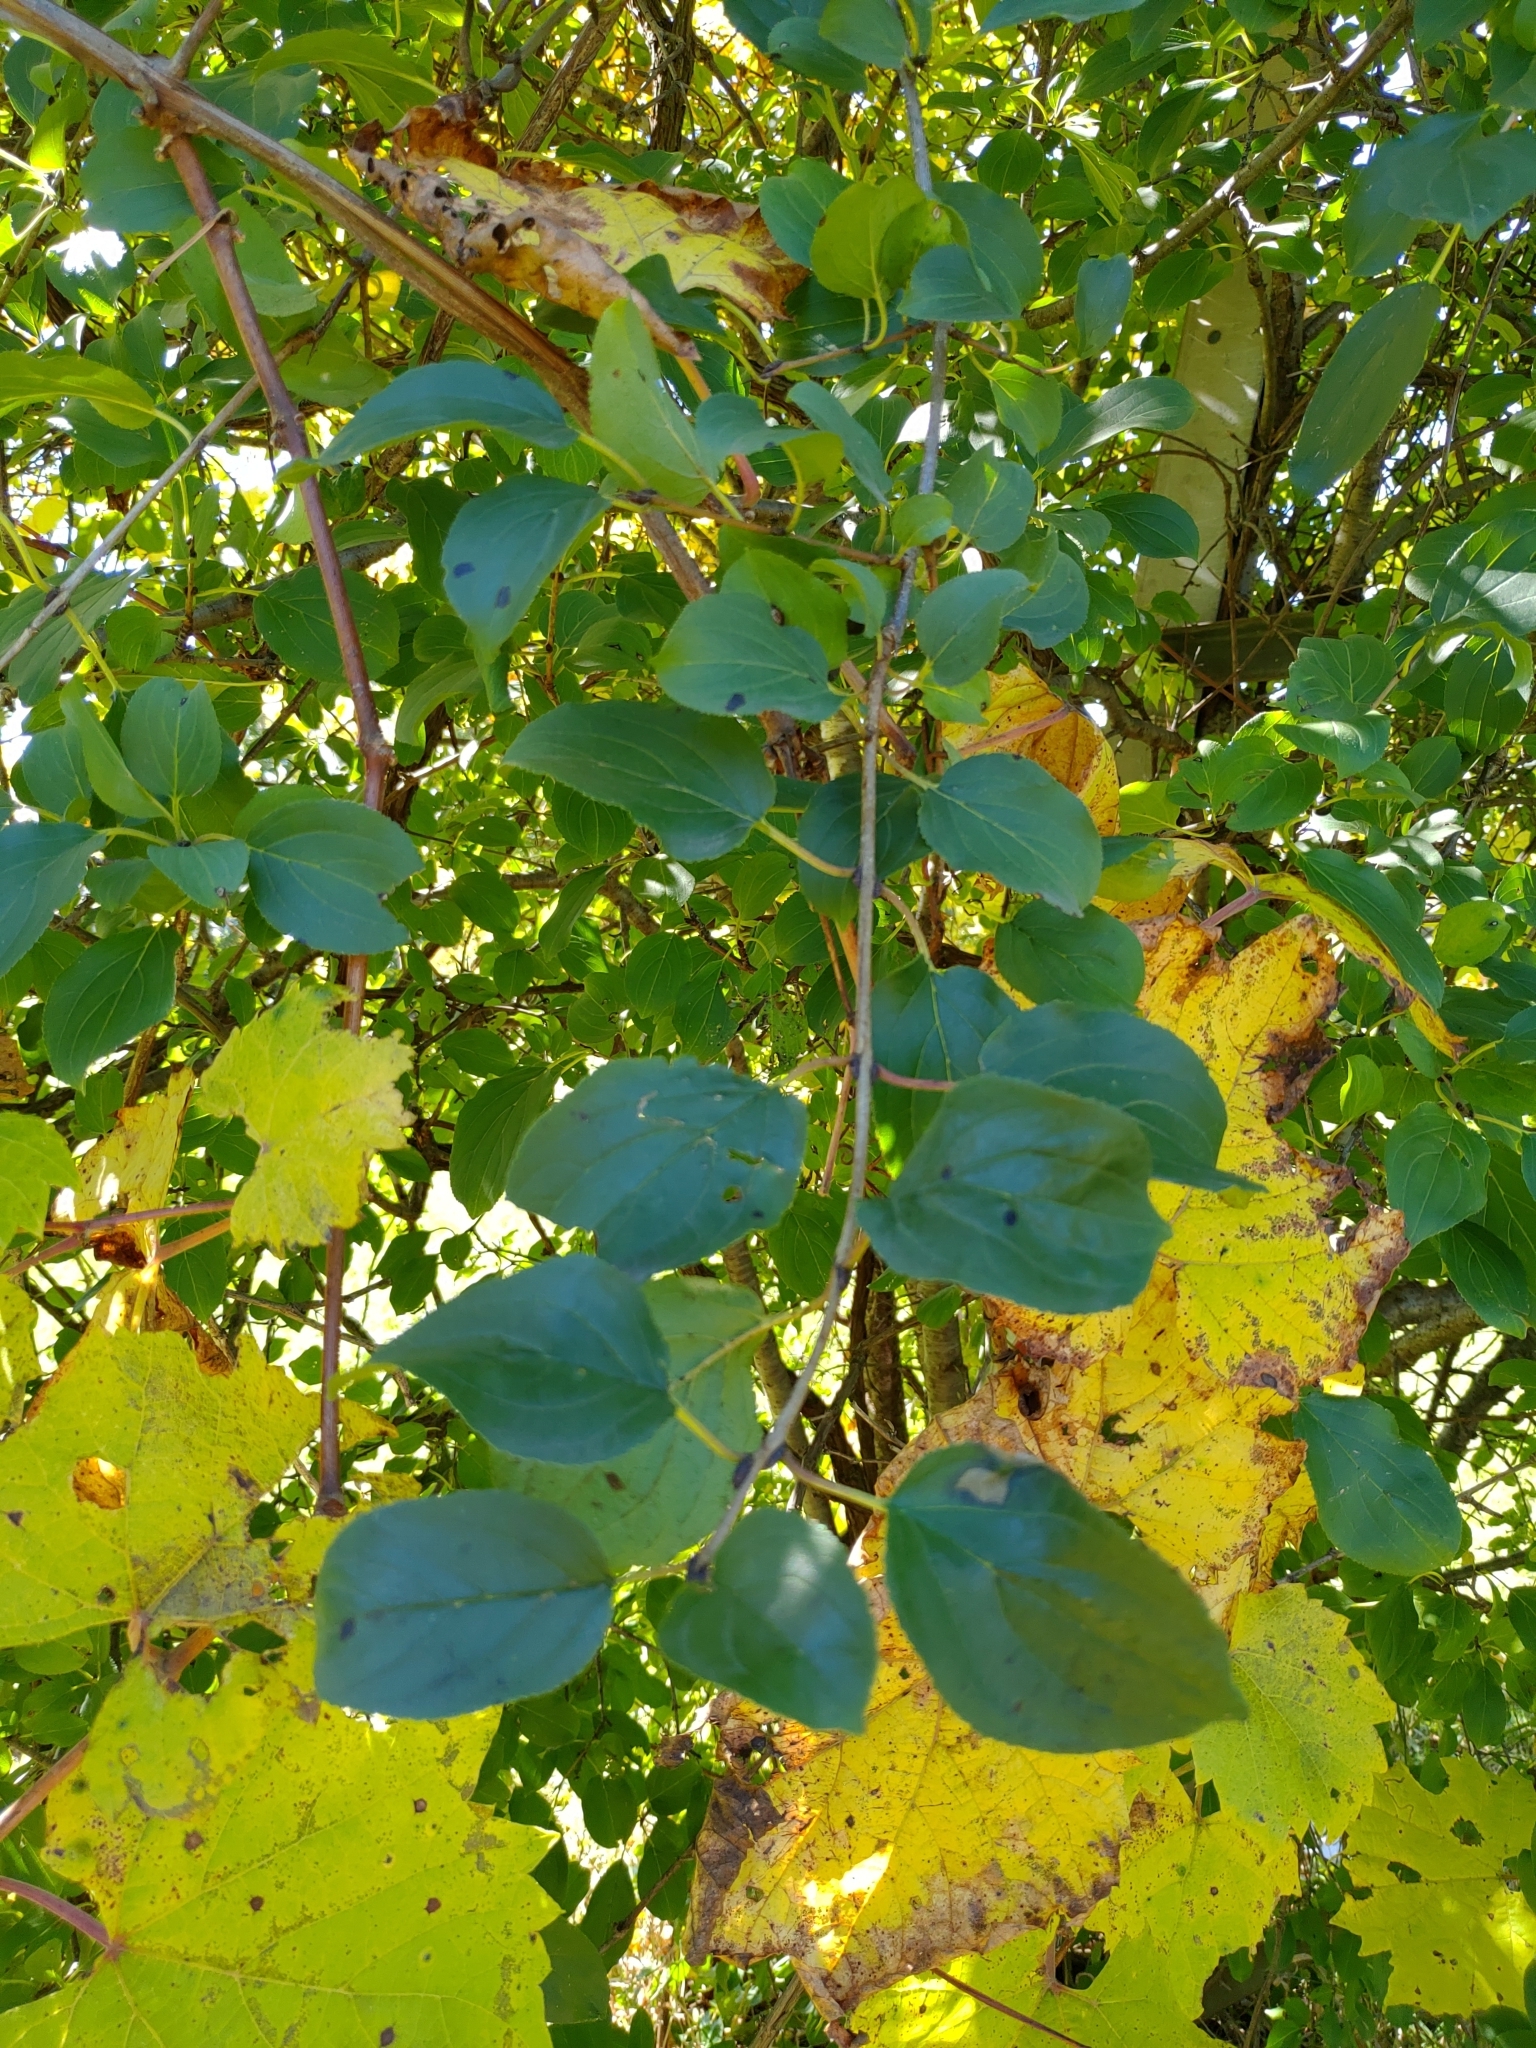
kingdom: Plantae
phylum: Tracheophyta
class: Magnoliopsida
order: Rosales
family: Rhamnaceae
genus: Rhamnus
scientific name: Rhamnus cathartica
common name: Common buckthorn
